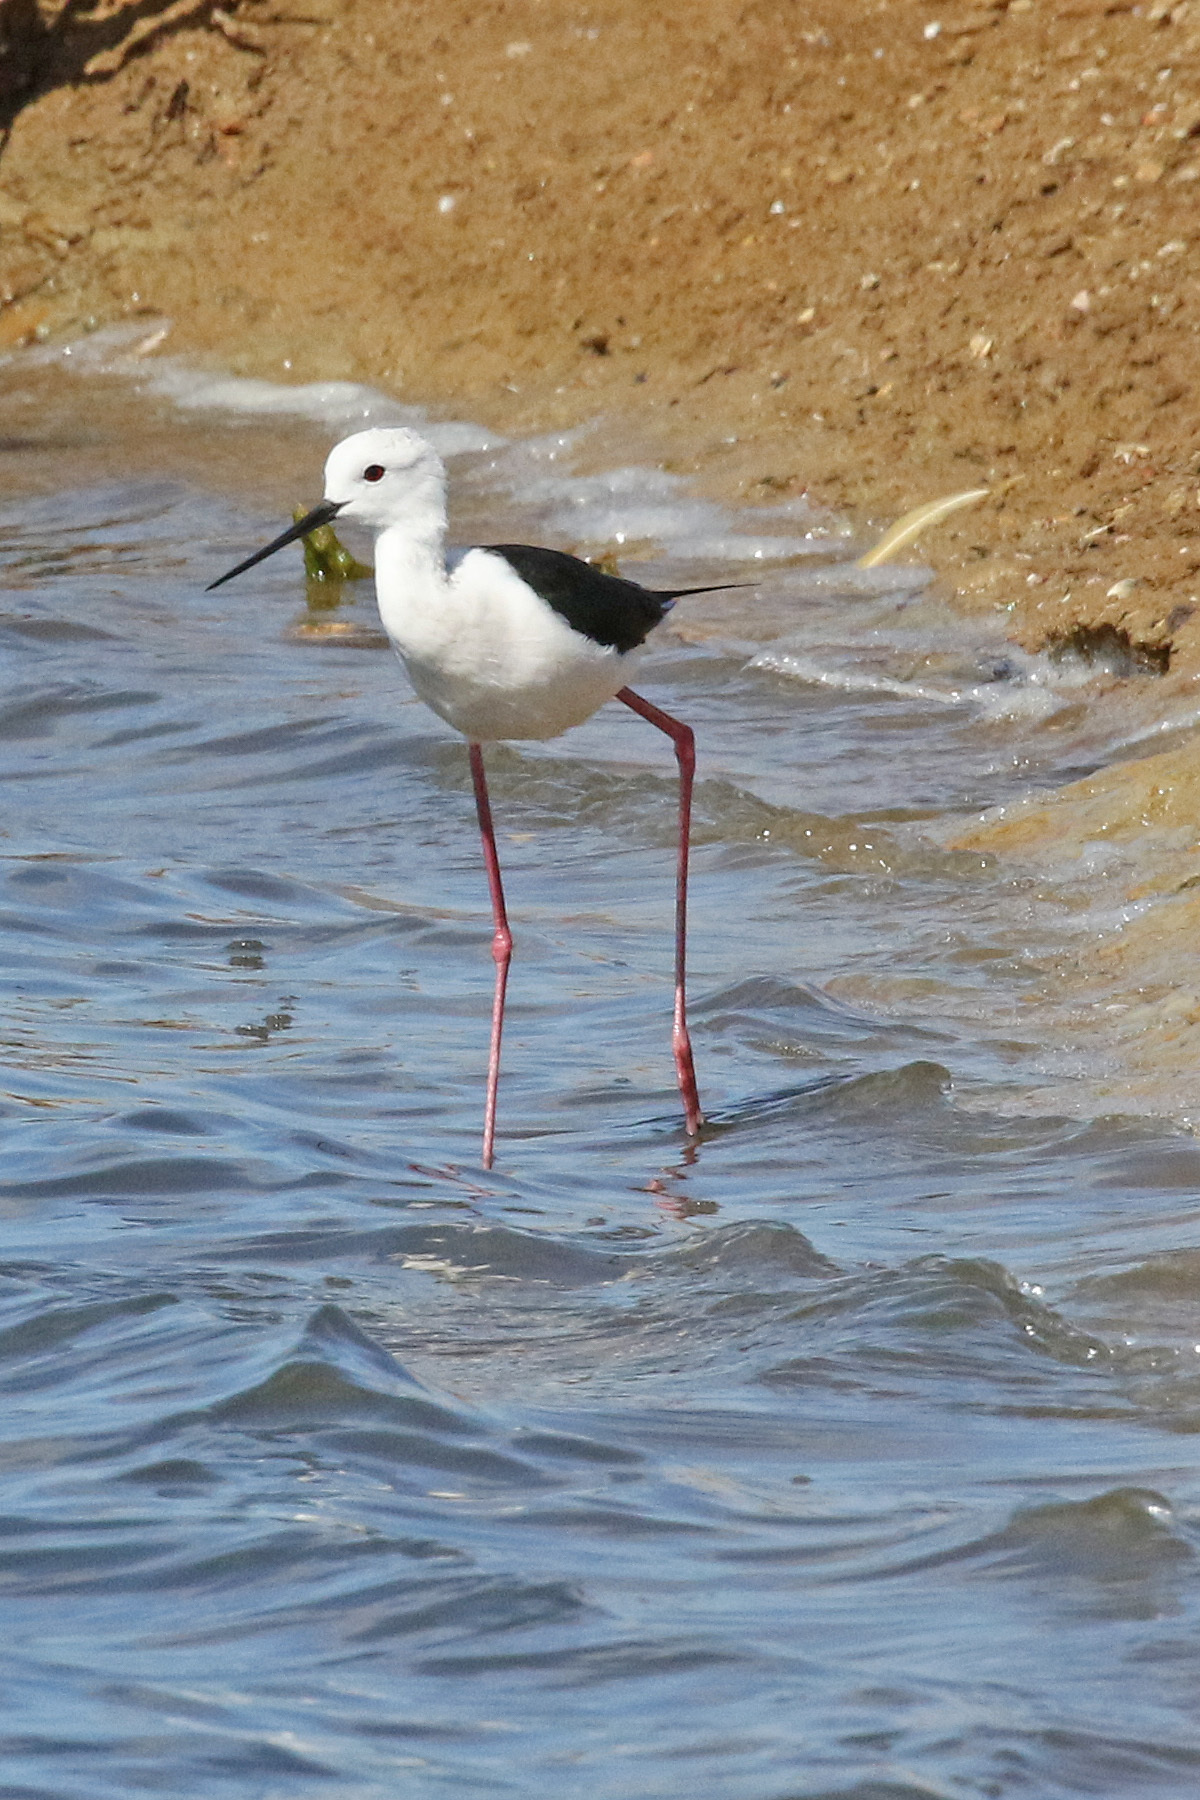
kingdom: Animalia
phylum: Chordata
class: Aves
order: Charadriiformes
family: Recurvirostridae
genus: Himantopus
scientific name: Himantopus himantopus
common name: Black-winged stilt
